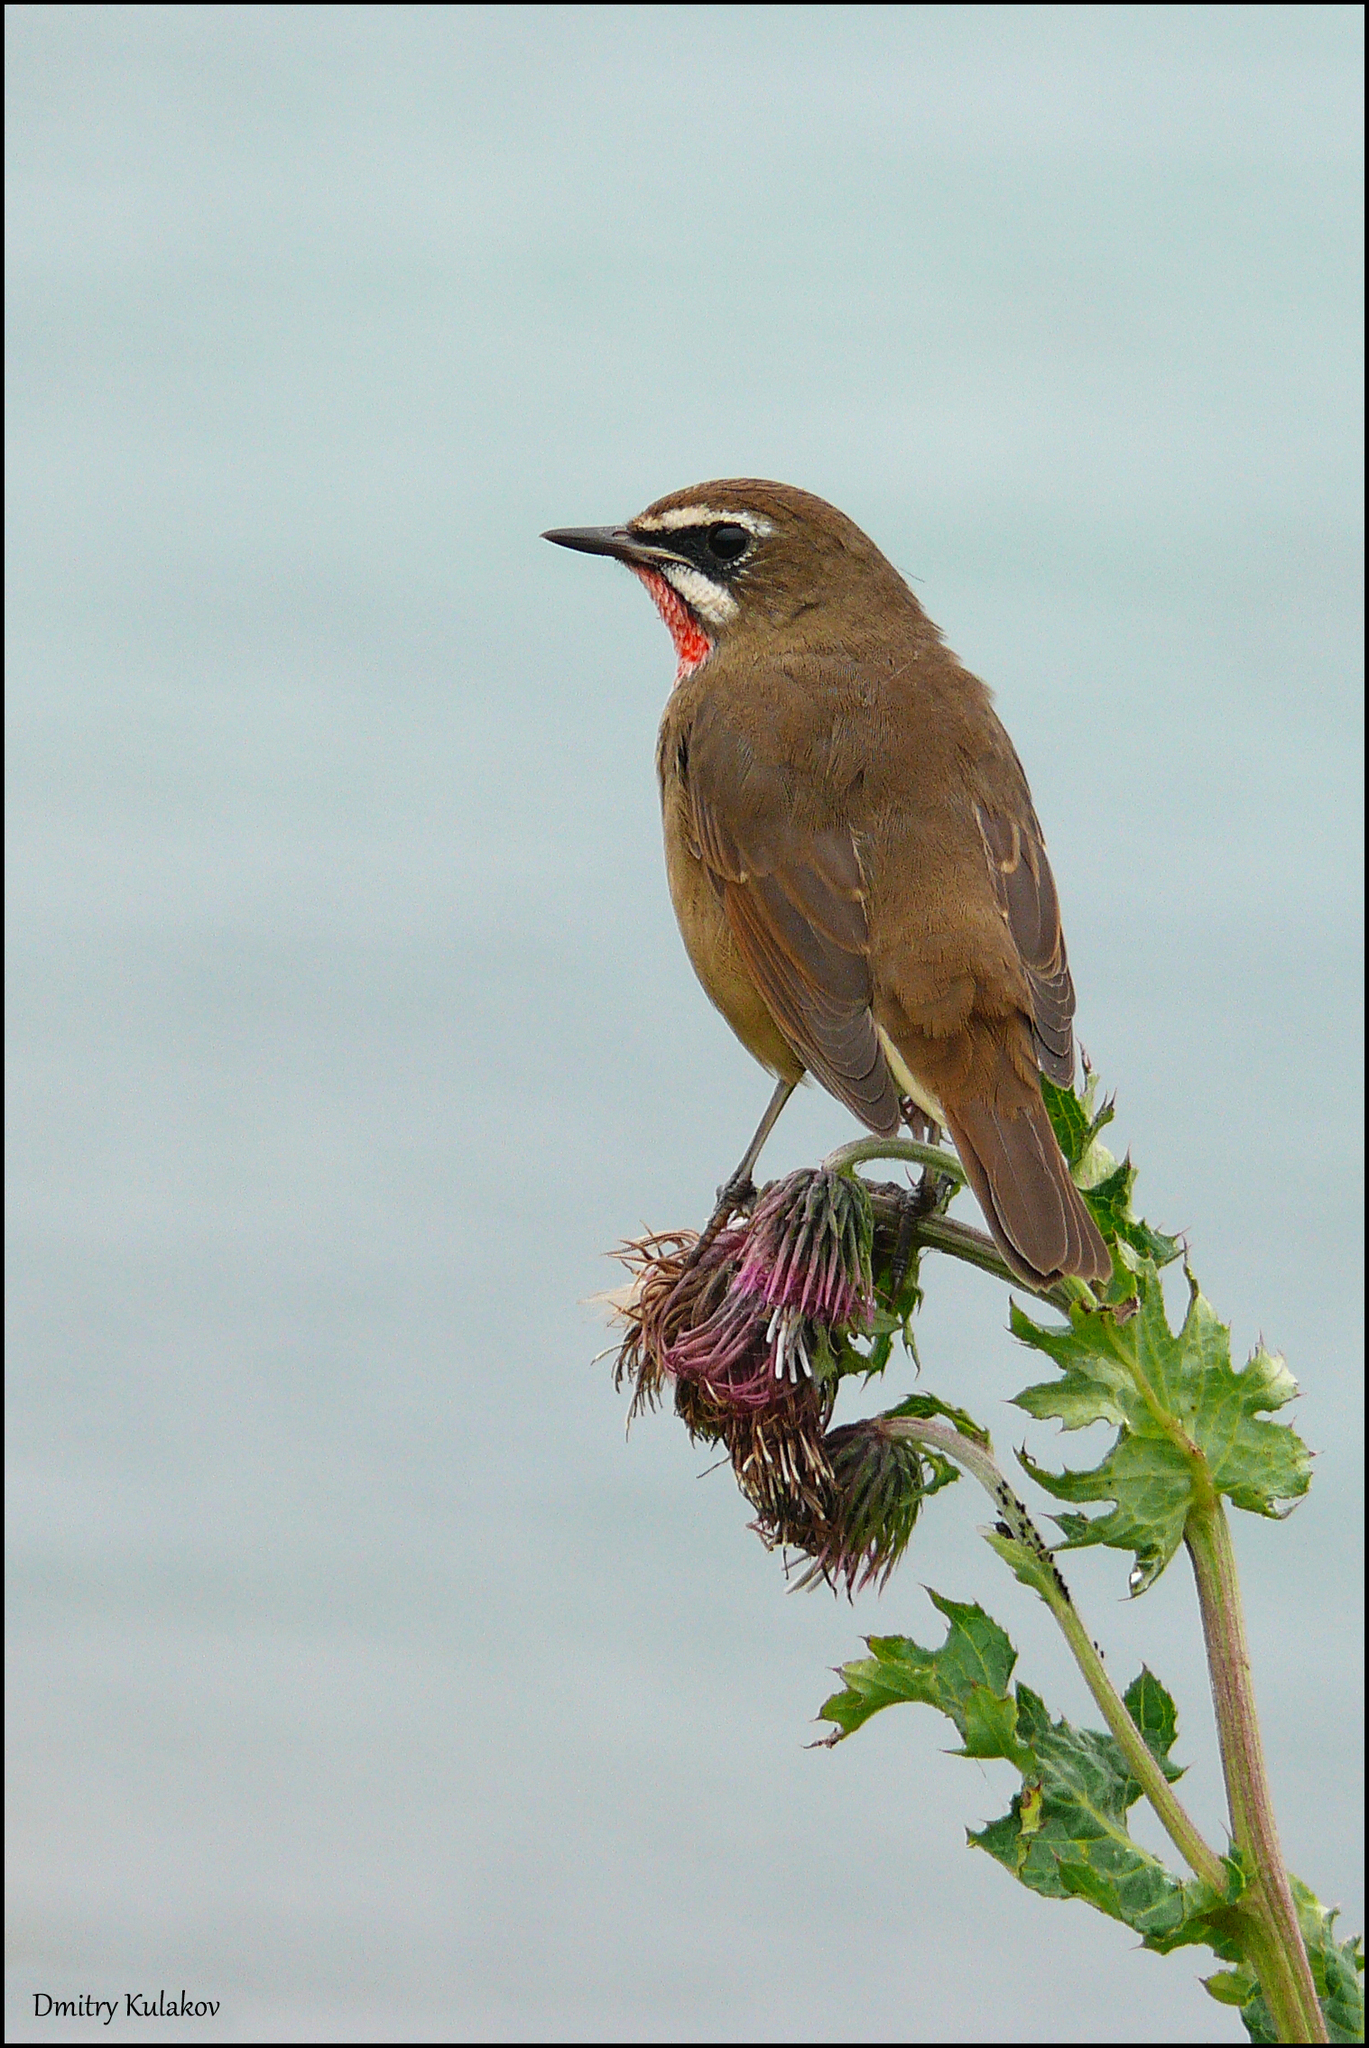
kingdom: Animalia
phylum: Chordata
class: Aves
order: Passeriformes
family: Muscicapidae
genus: Luscinia
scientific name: Luscinia calliope
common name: Siberian rubythroat
